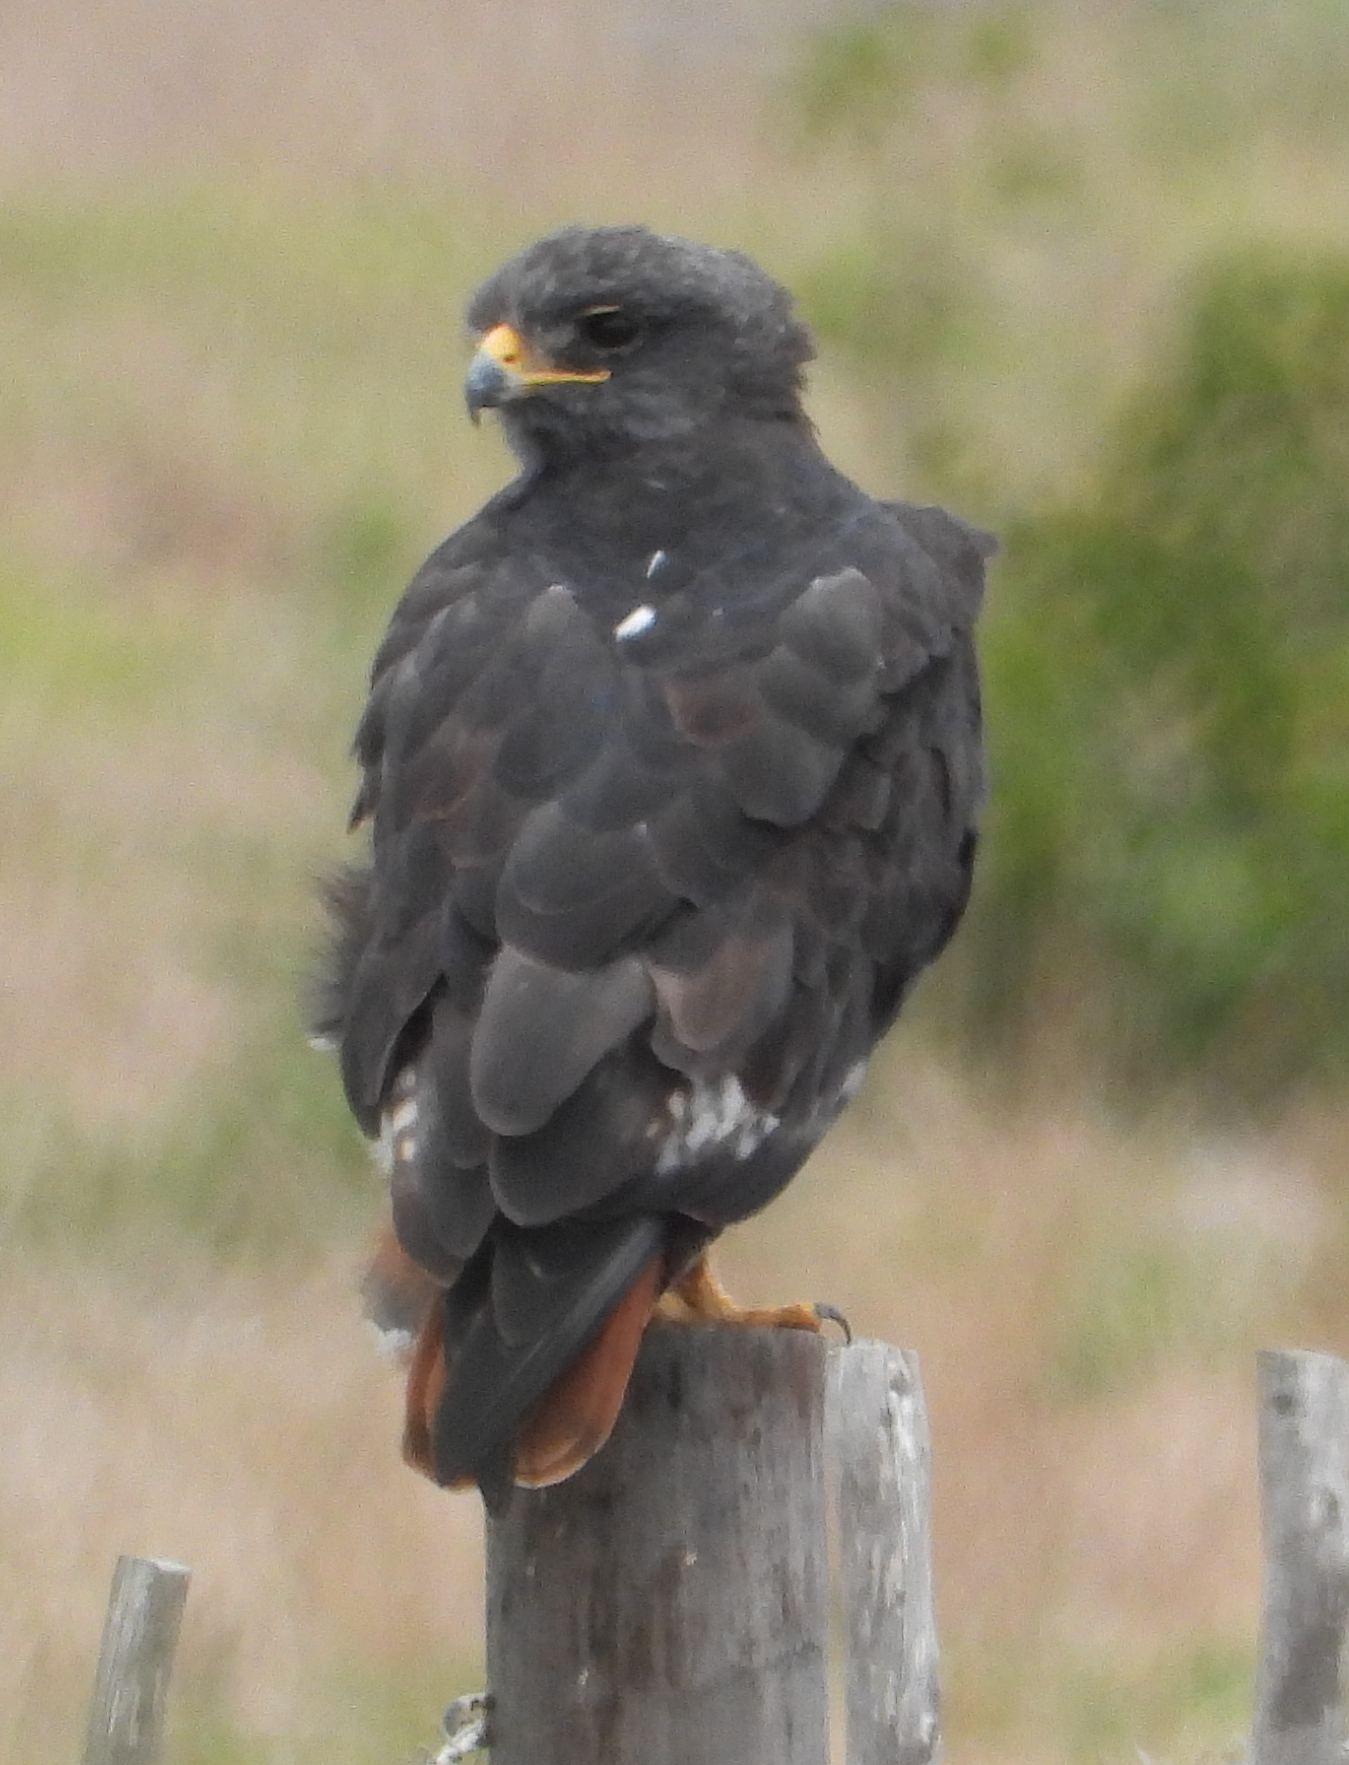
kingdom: Animalia
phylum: Chordata
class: Aves
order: Accipitriformes
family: Accipitridae
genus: Buteo
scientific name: Buteo rufofuscus
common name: Jackal buzzard
